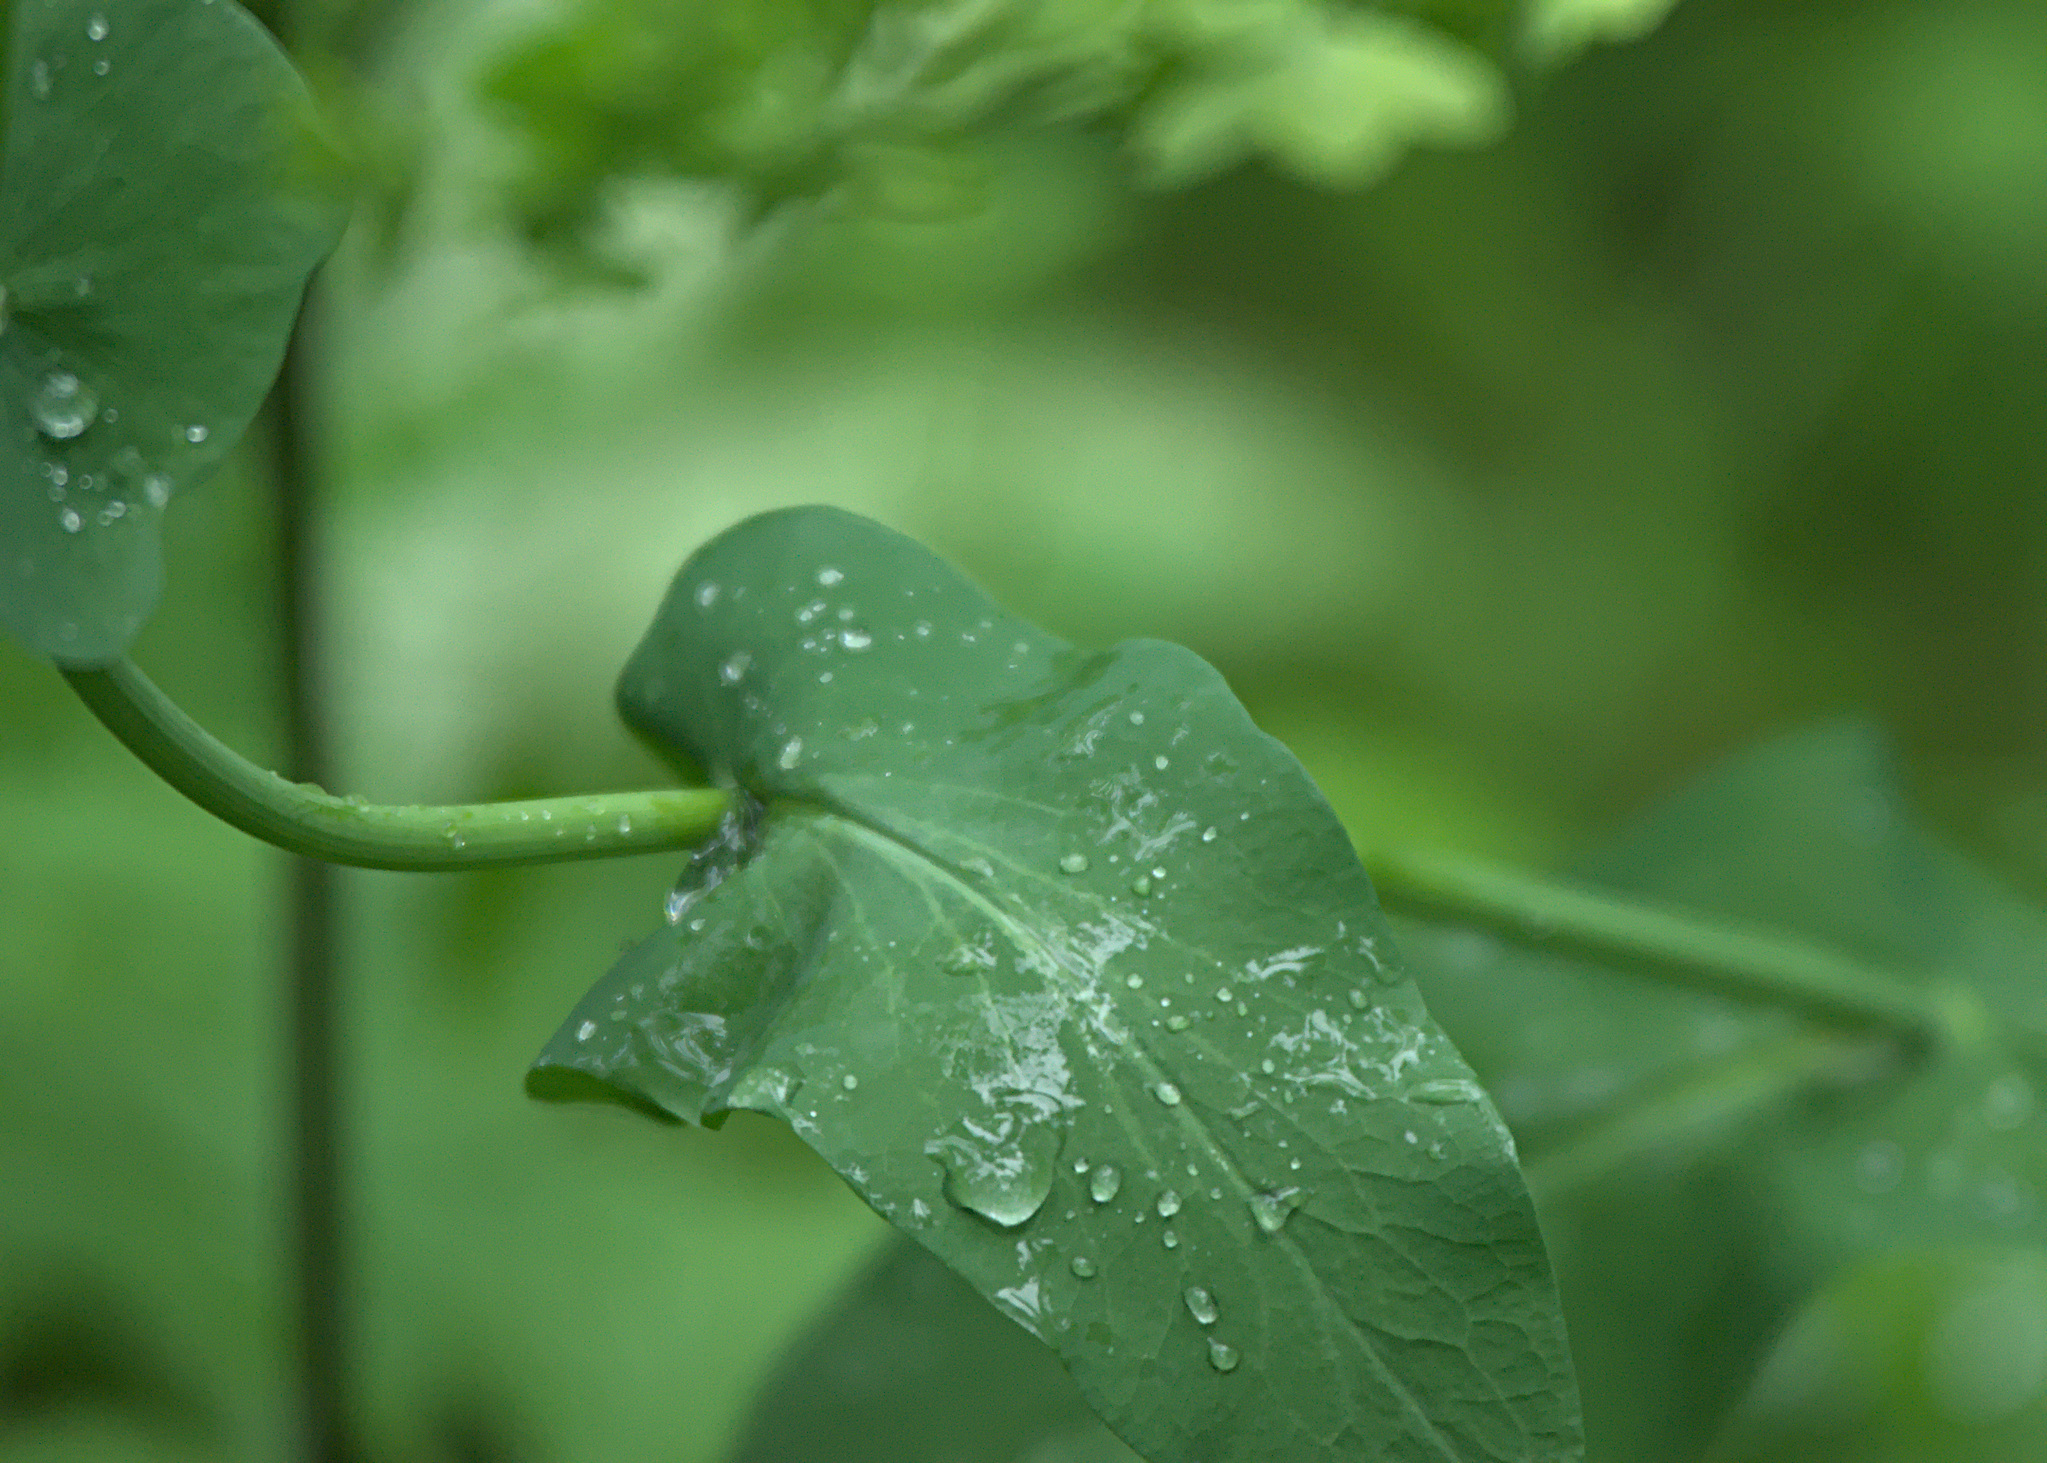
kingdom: Plantae
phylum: Tracheophyta
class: Magnoliopsida
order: Apiales
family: Apiaceae
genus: Bupleurum
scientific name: Bupleurum aureum
